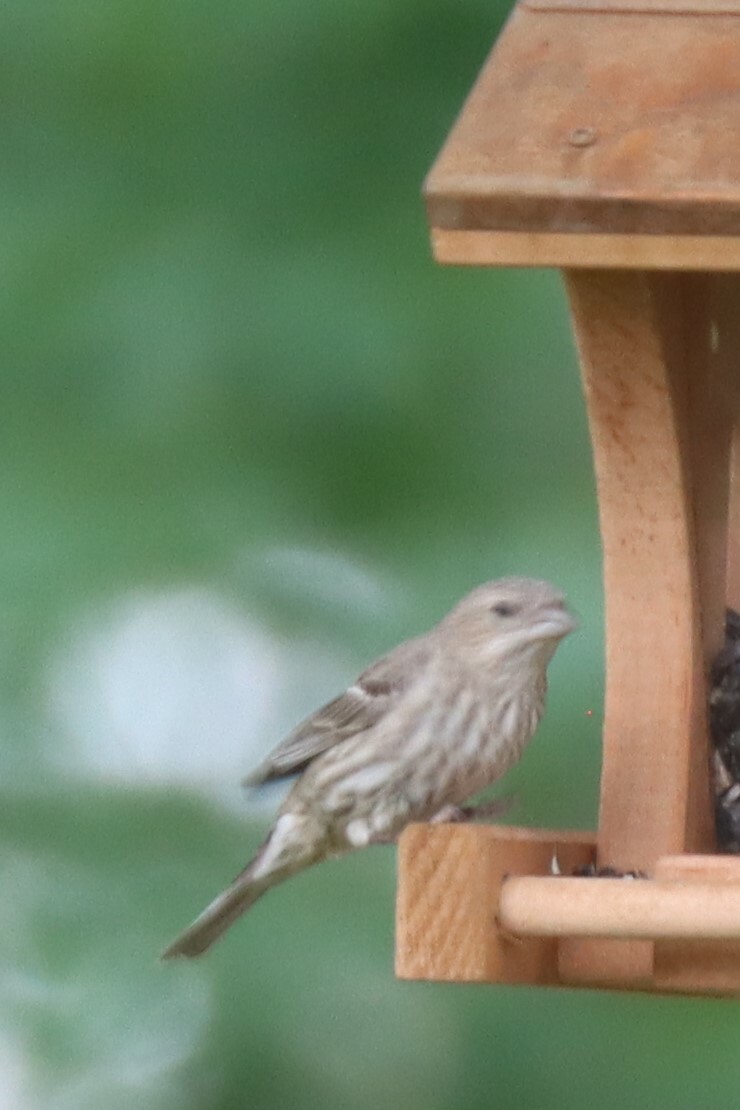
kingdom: Animalia
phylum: Chordata
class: Aves
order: Passeriformes
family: Fringillidae
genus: Haemorhous
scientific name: Haemorhous mexicanus
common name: House finch
